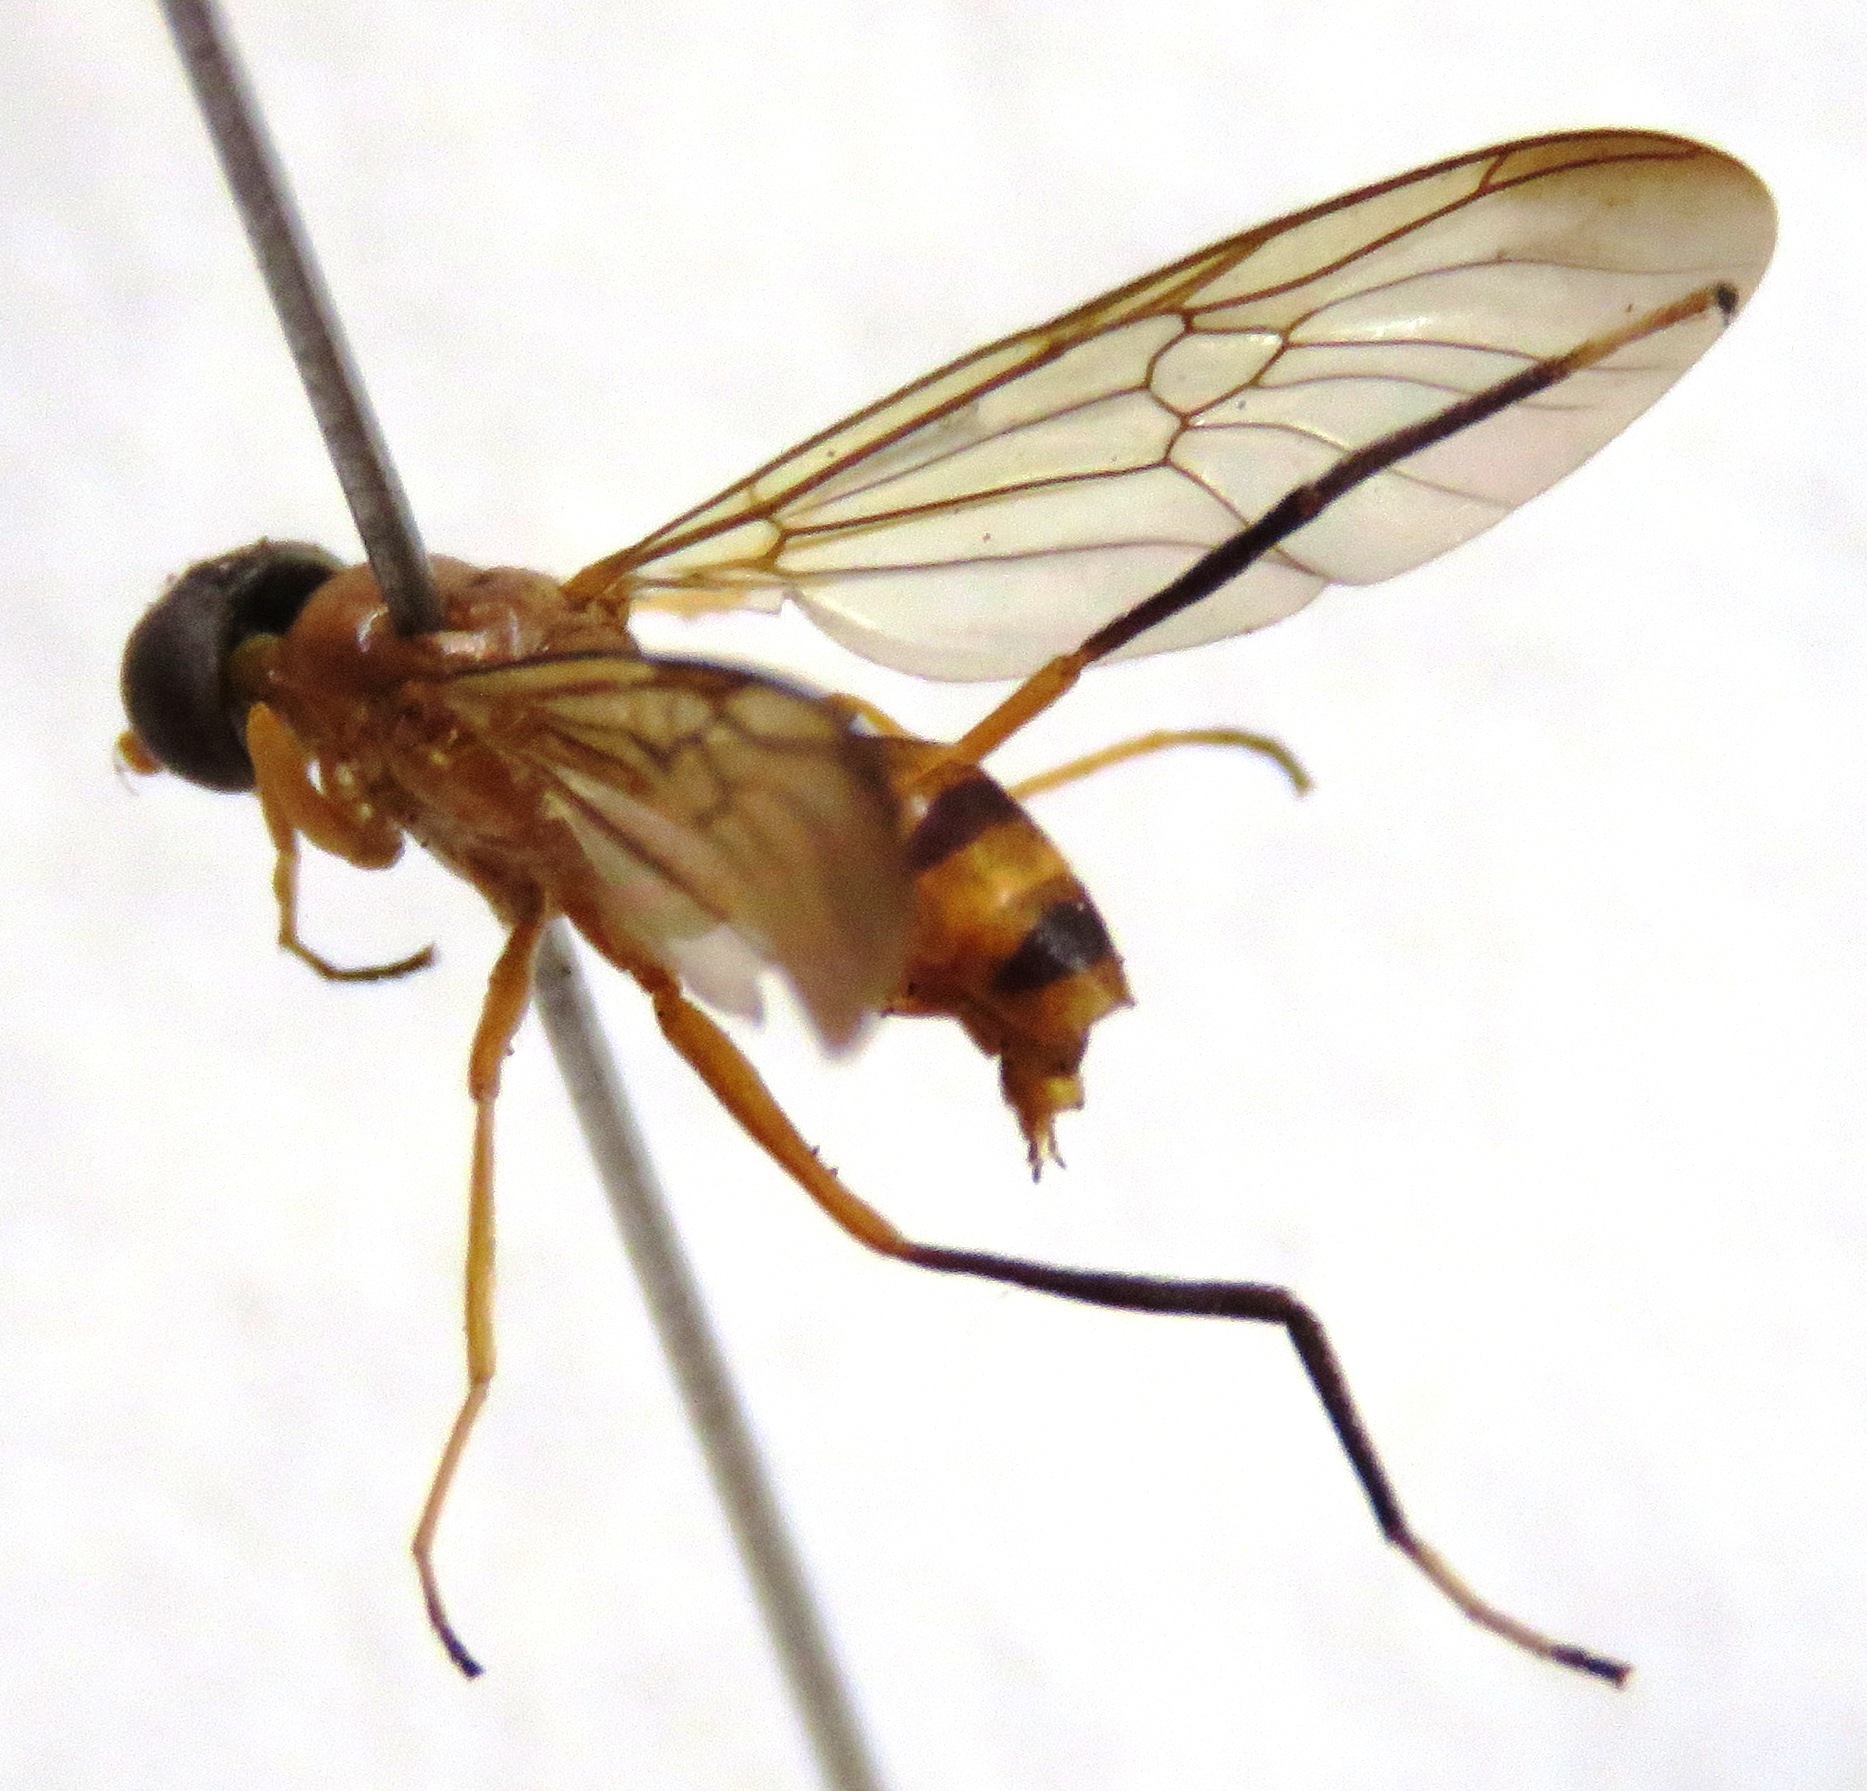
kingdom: Animalia
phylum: Arthropoda
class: Insecta
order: Diptera
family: Stratiomyidae
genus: Ptecticus
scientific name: Ptecticus nigrifrons
